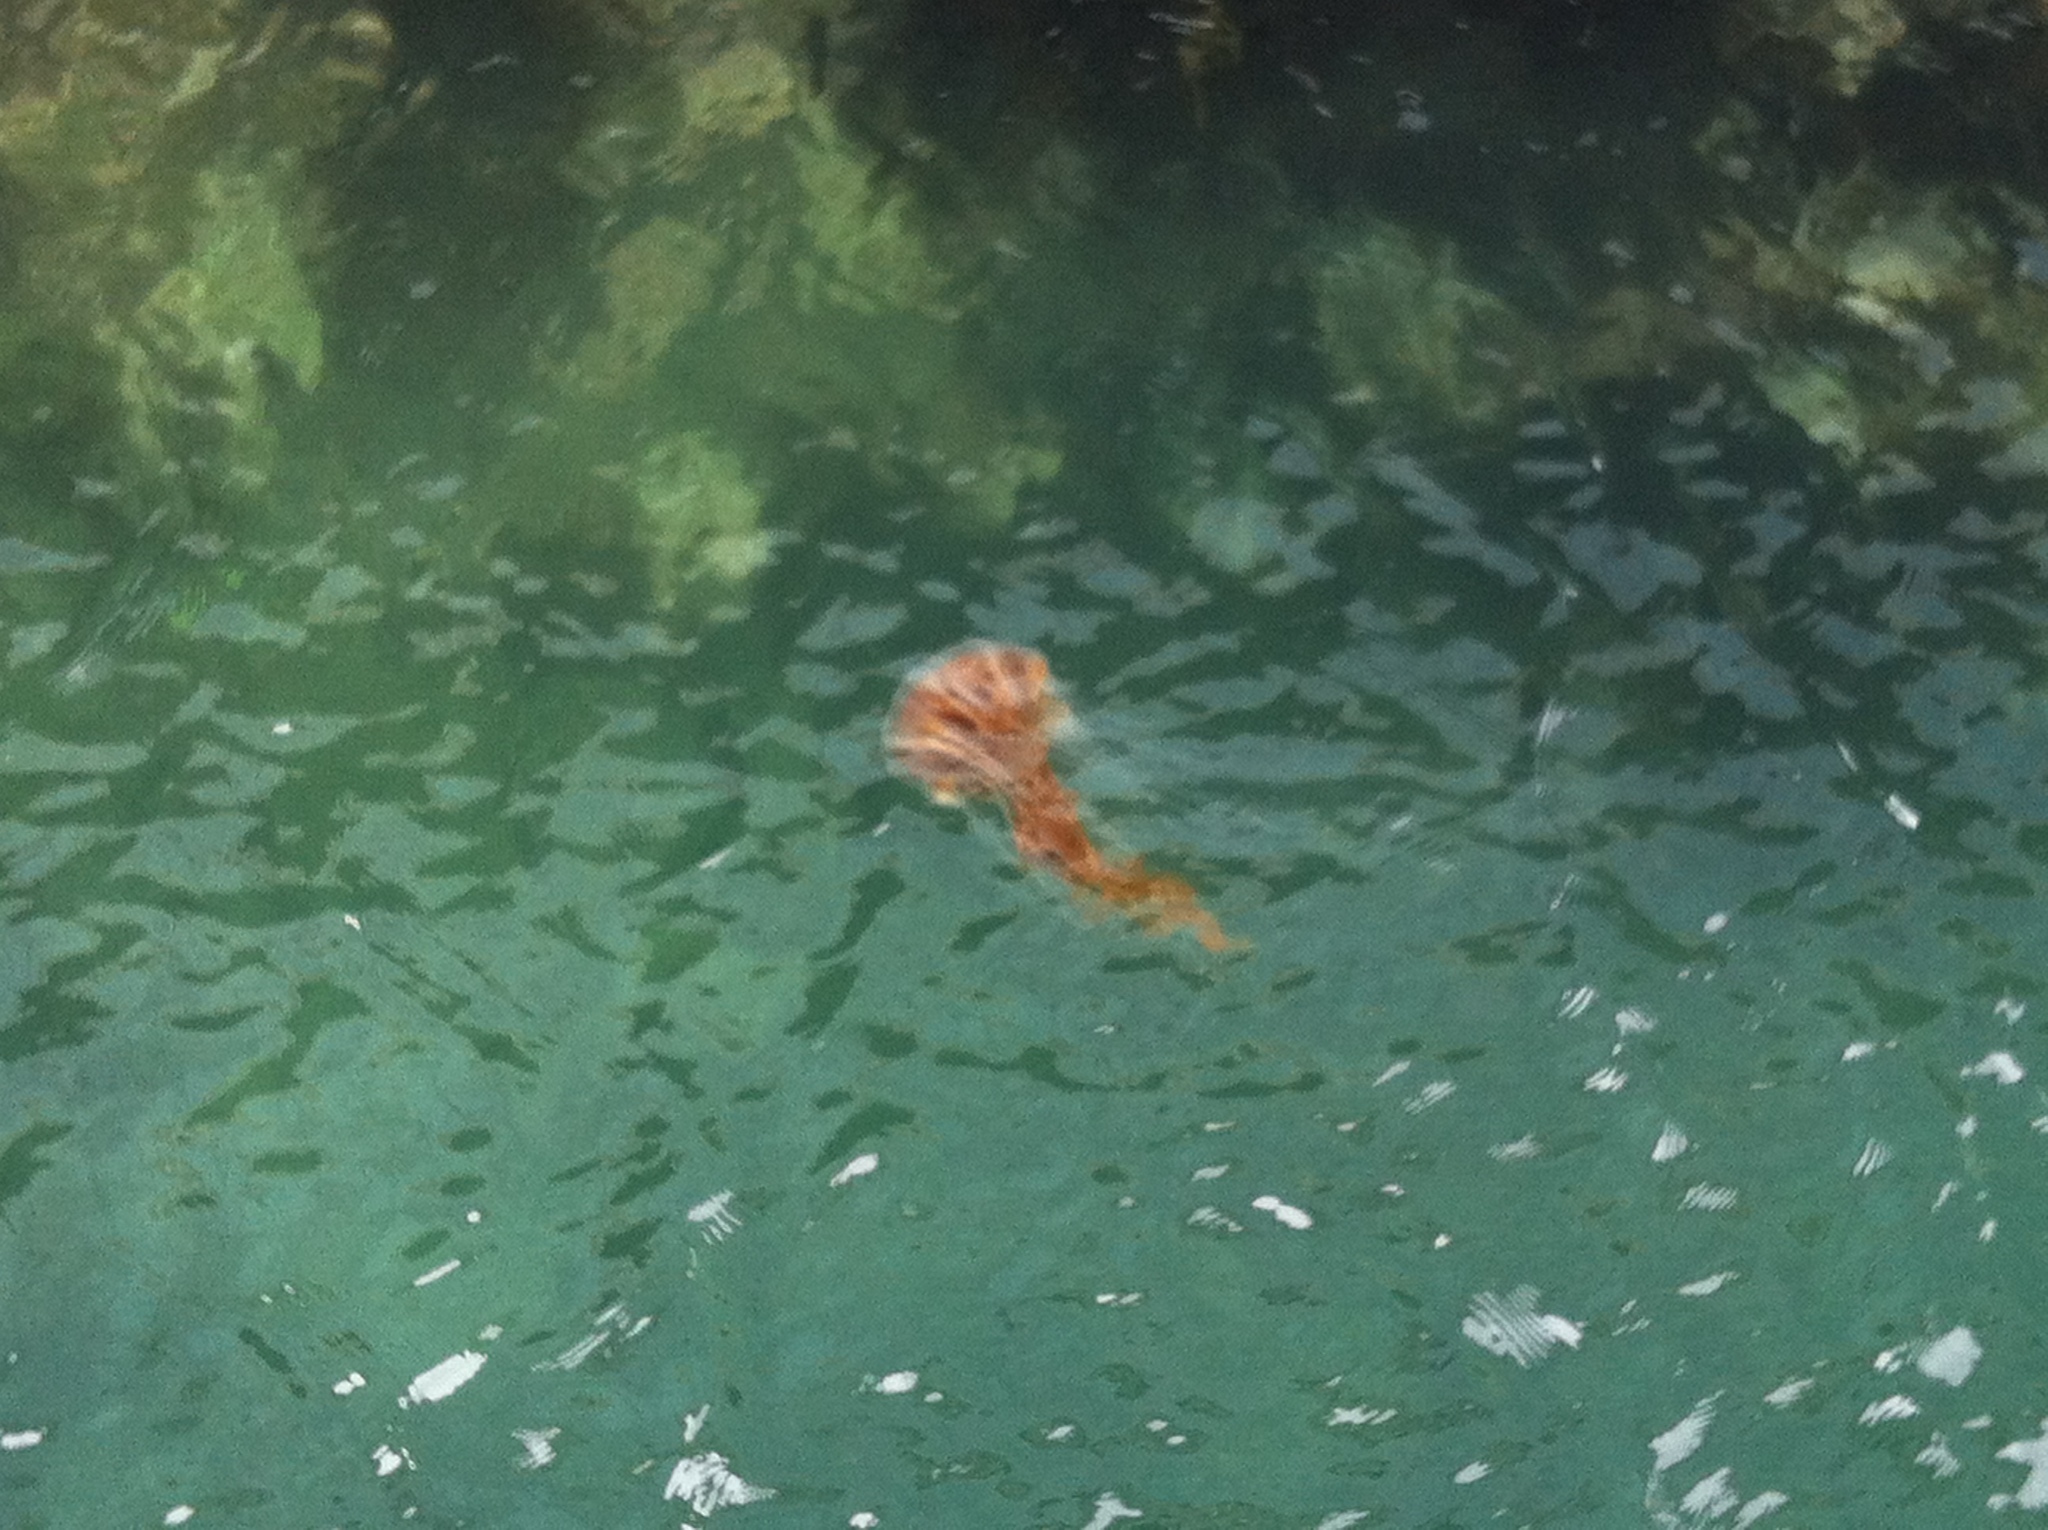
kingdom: Animalia
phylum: Cnidaria
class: Scyphozoa
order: Semaeostomeae
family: Cyaneidae
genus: Desmonema
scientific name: Desmonema gaudichaudi
